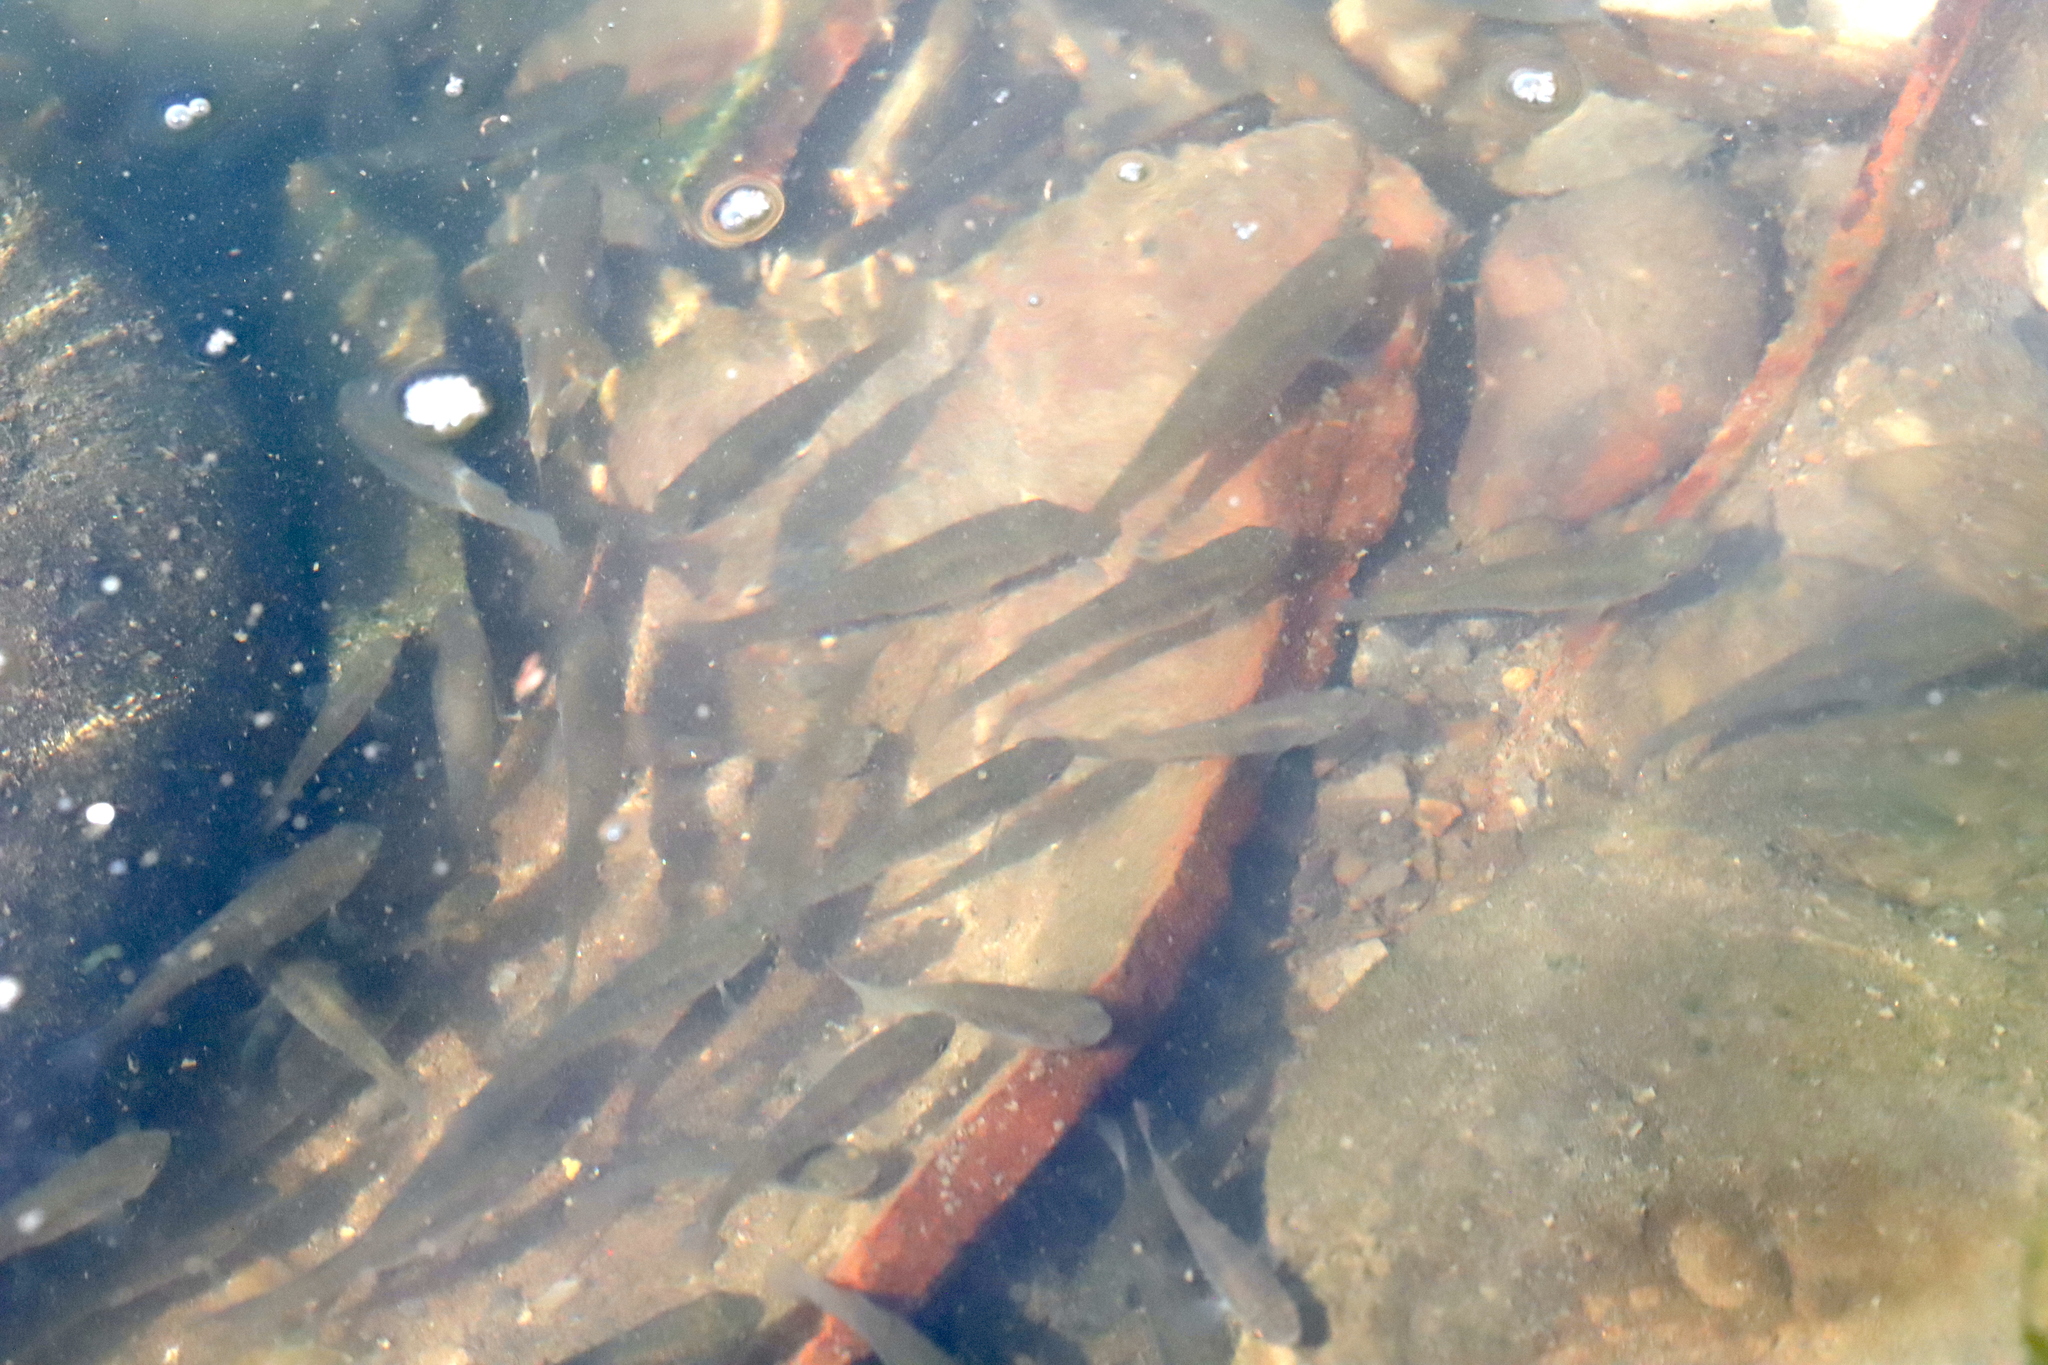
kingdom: Animalia
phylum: Chordata
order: Cyprinodontiformes
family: Fundulidae
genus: Fundulus
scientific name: Fundulus heteroclitus
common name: Mummichog
